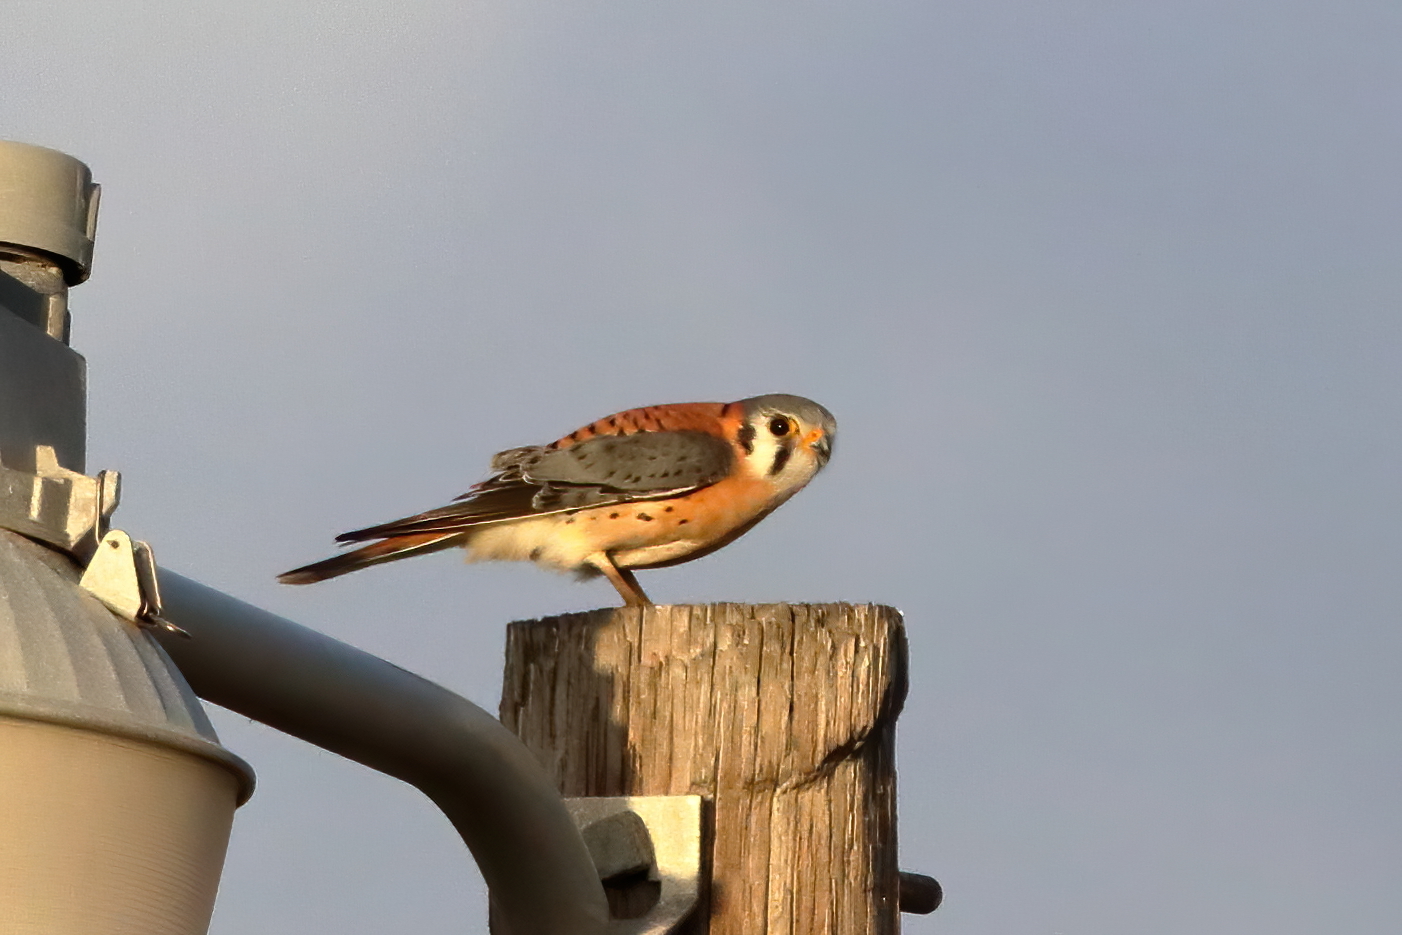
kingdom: Animalia
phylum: Chordata
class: Aves
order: Falconiformes
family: Falconidae
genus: Falco
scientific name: Falco sparverius
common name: American kestrel
